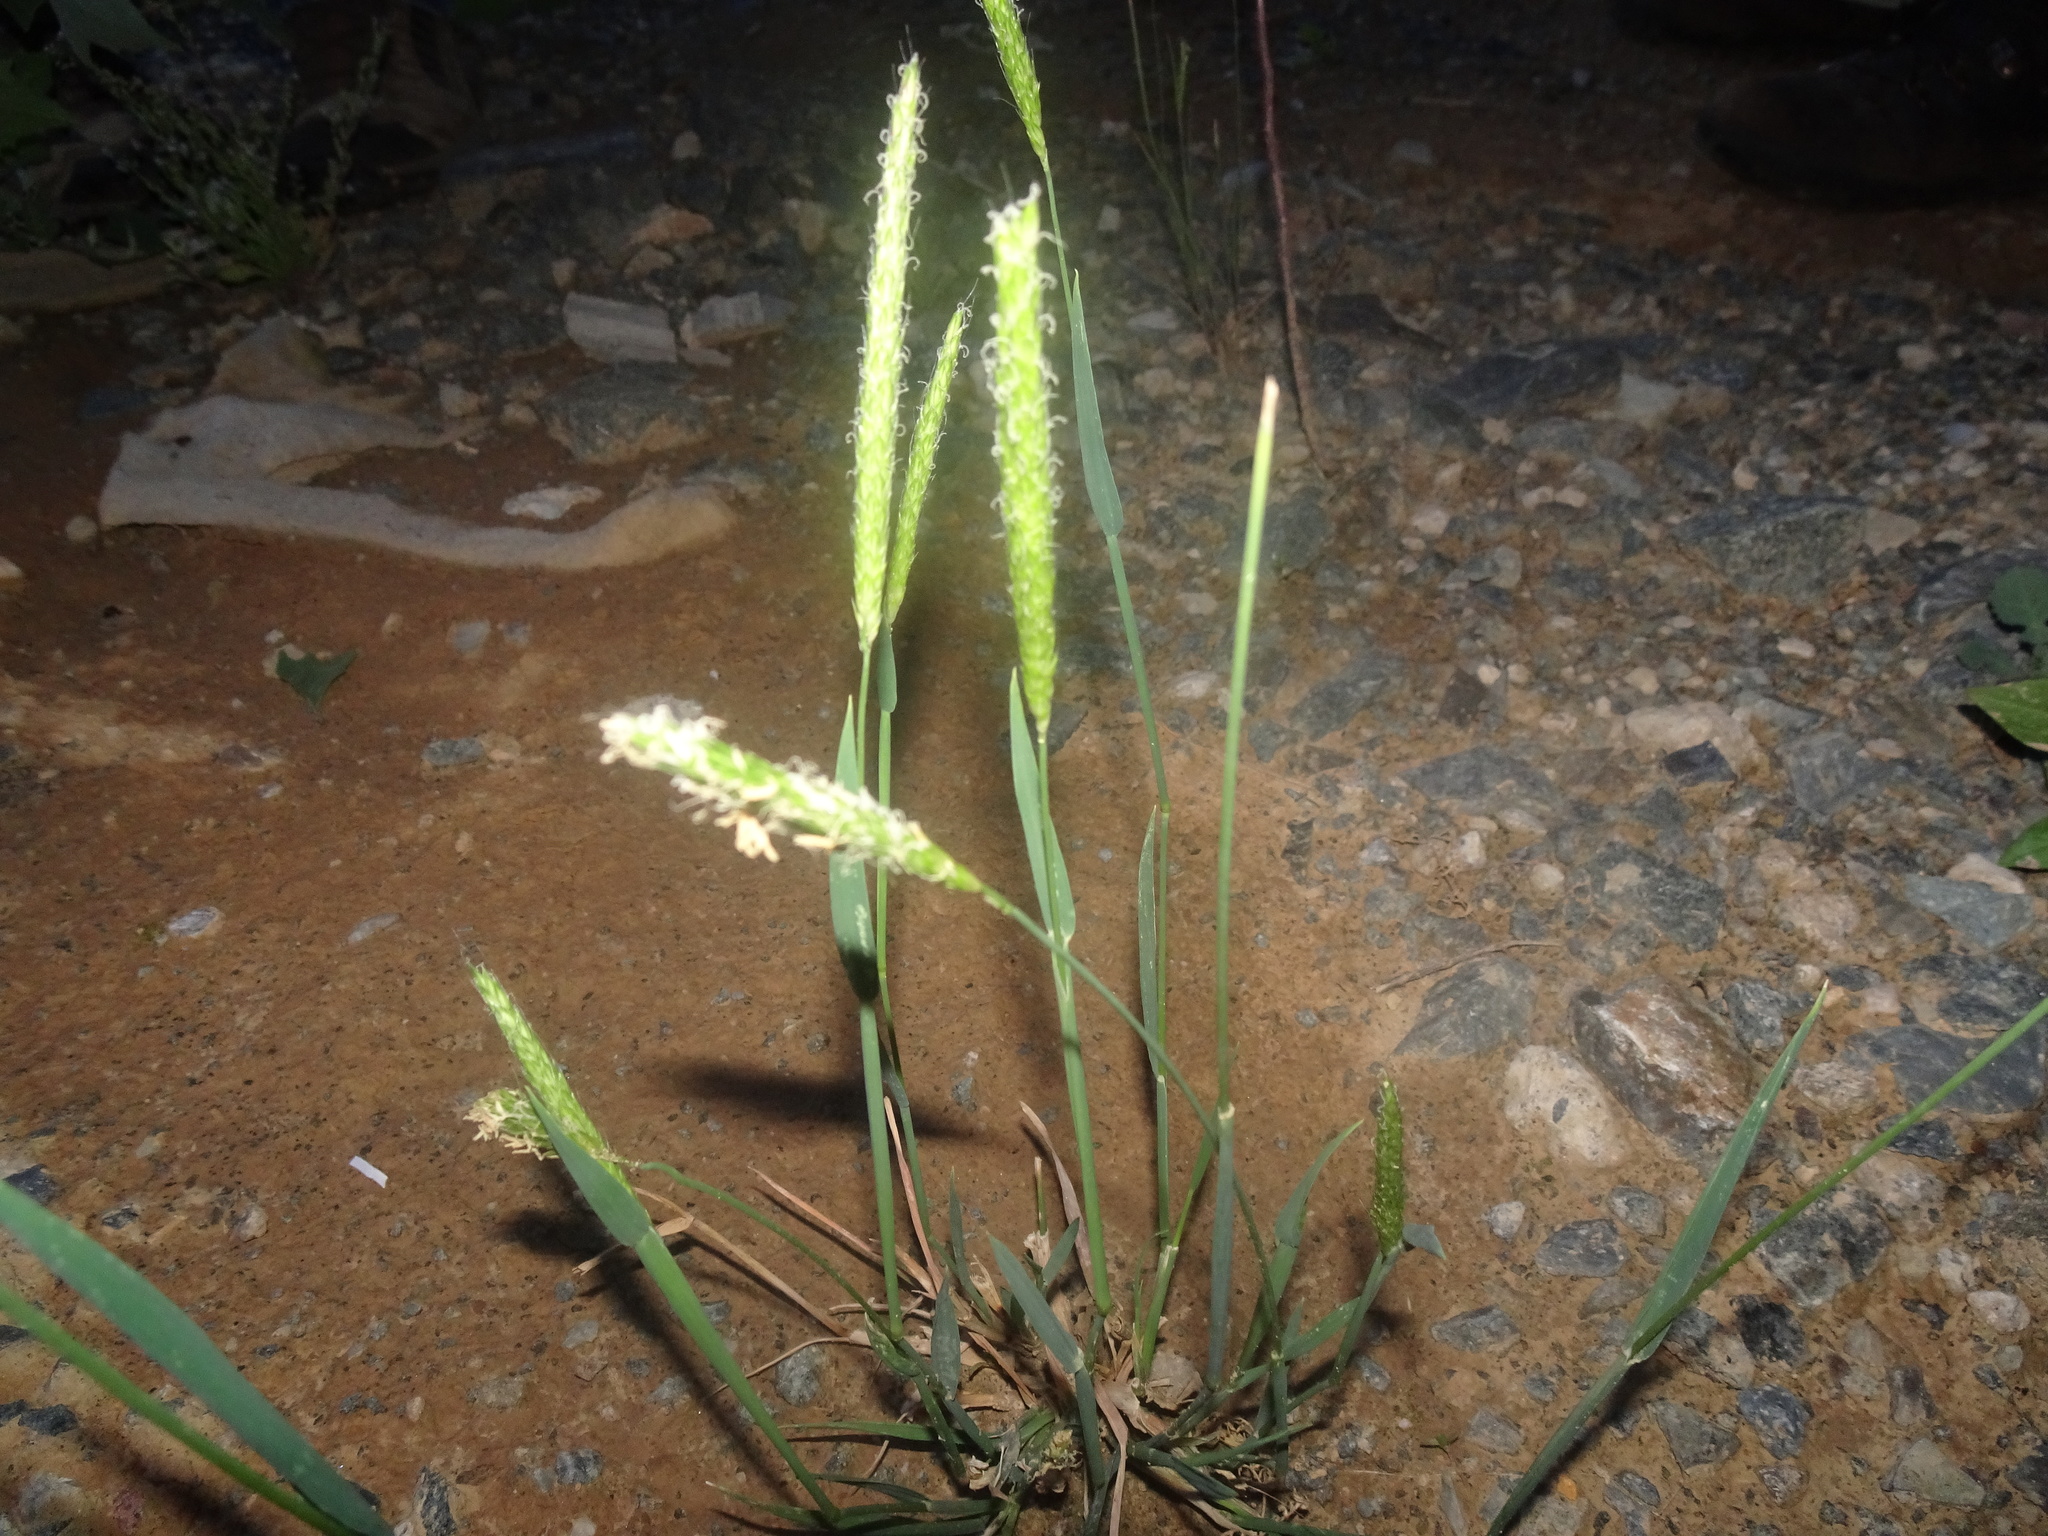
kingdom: Plantae
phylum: Tracheophyta
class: Liliopsida
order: Poales
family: Poaceae
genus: Alopecurus
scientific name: Alopecurus myosuroides
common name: Black-grass
